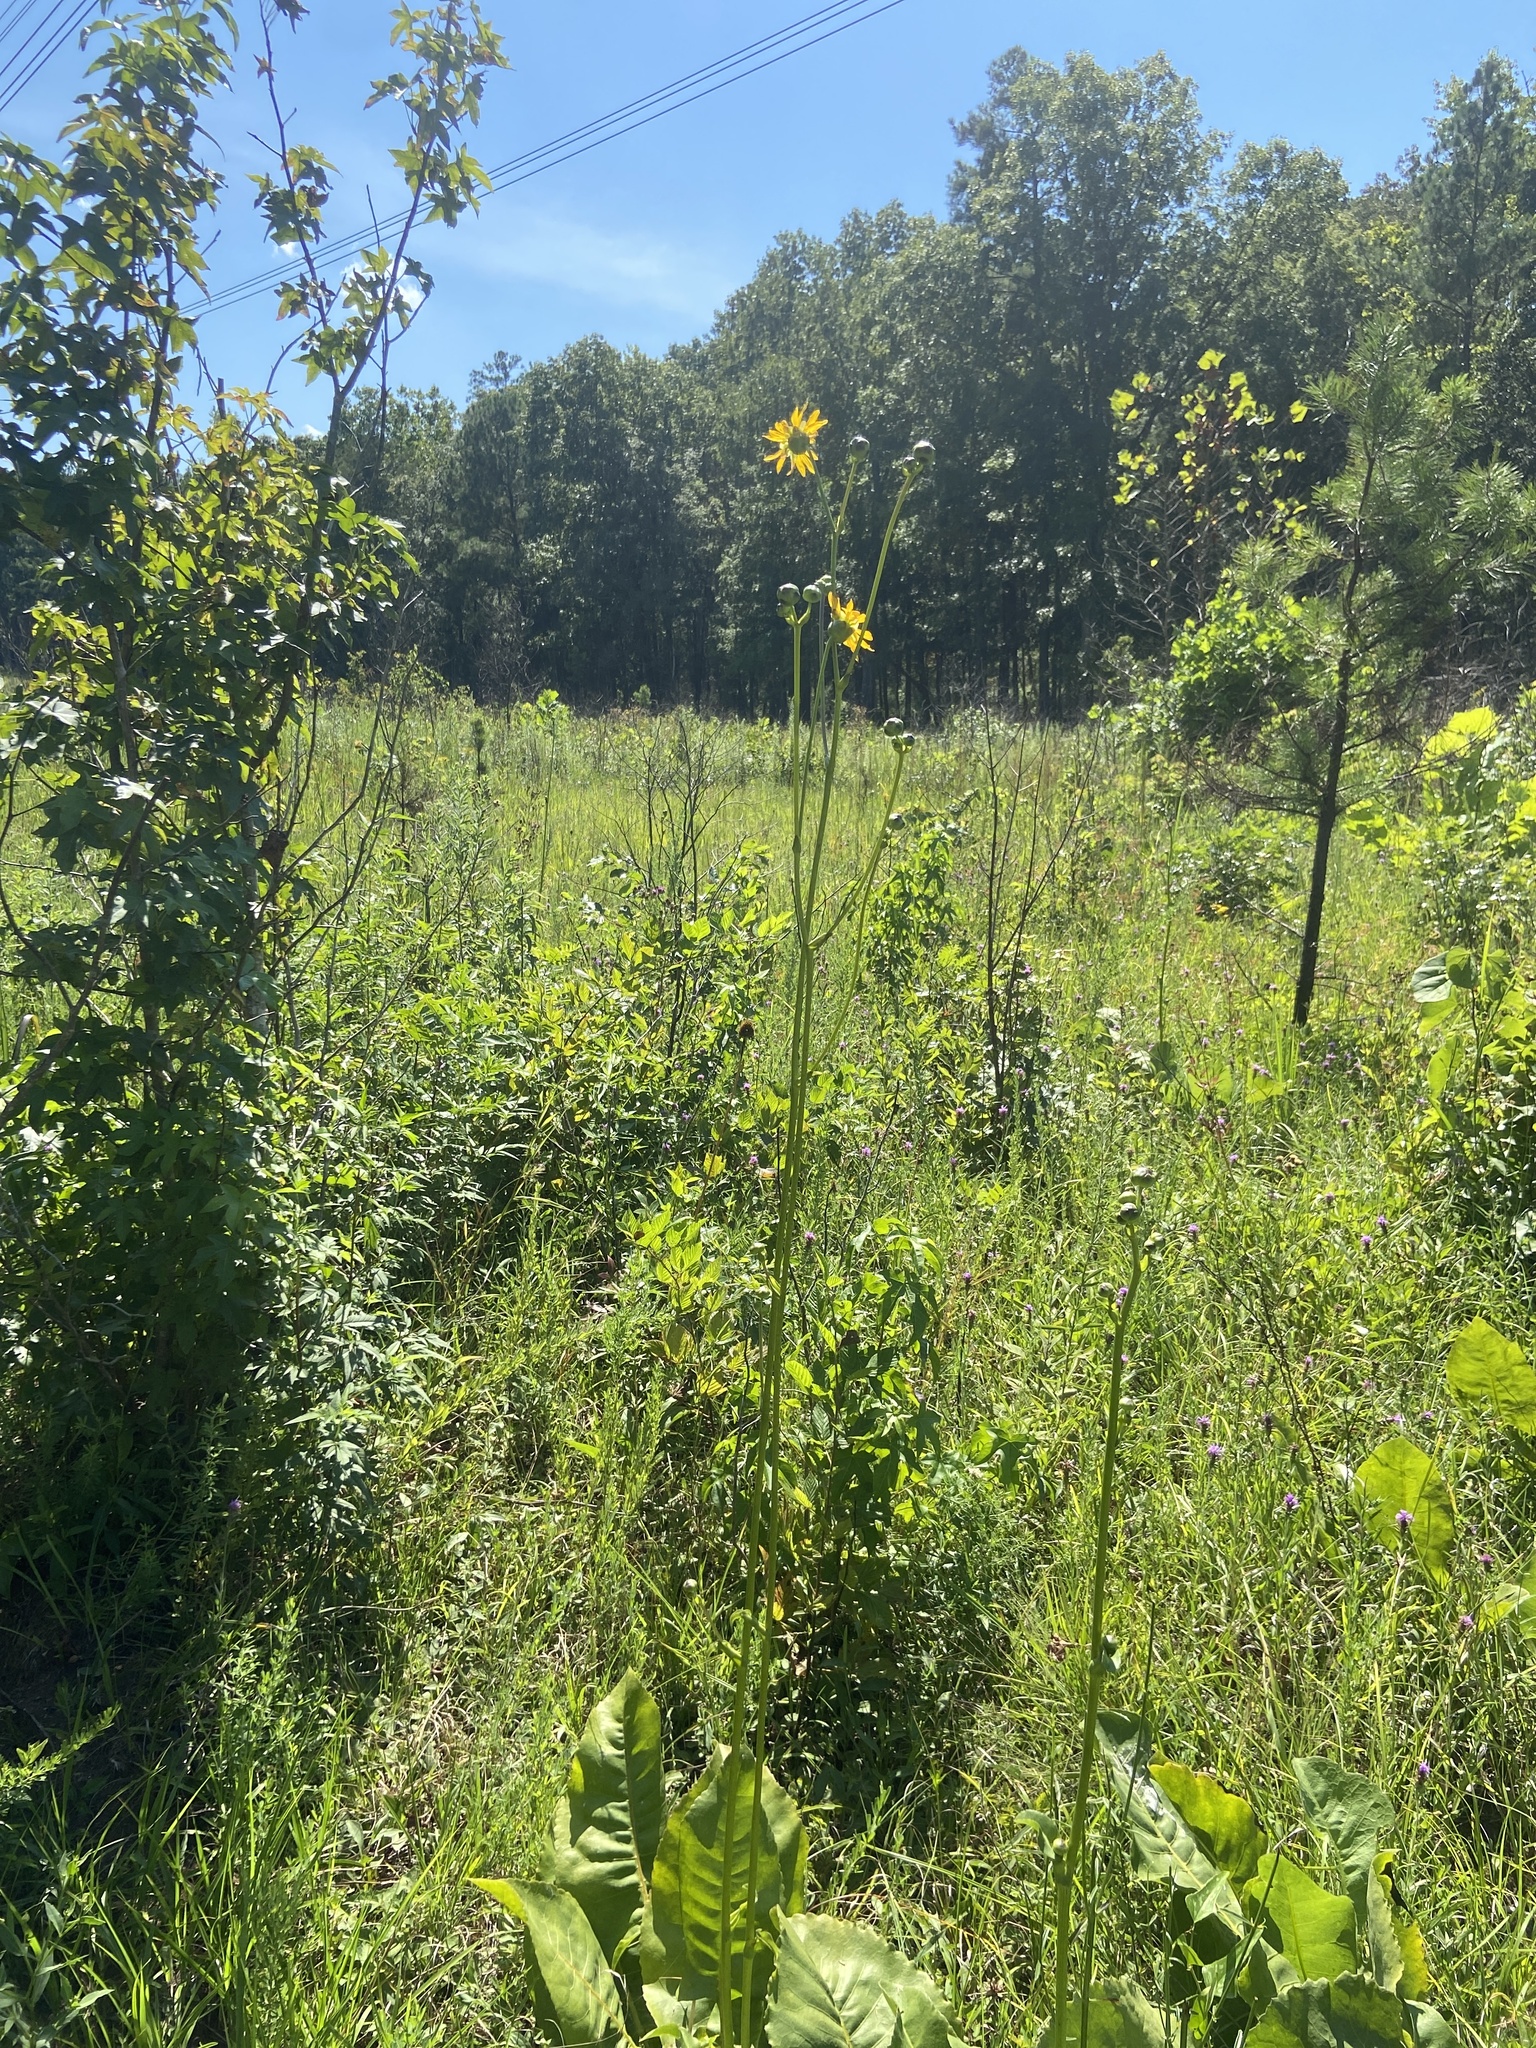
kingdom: Plantae
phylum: Tracheophyta
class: Magnoliopsida
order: Asterales
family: Asteraceae
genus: Silphium
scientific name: Silphium terebinthinaceum
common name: Basal-leaf rosinweed
